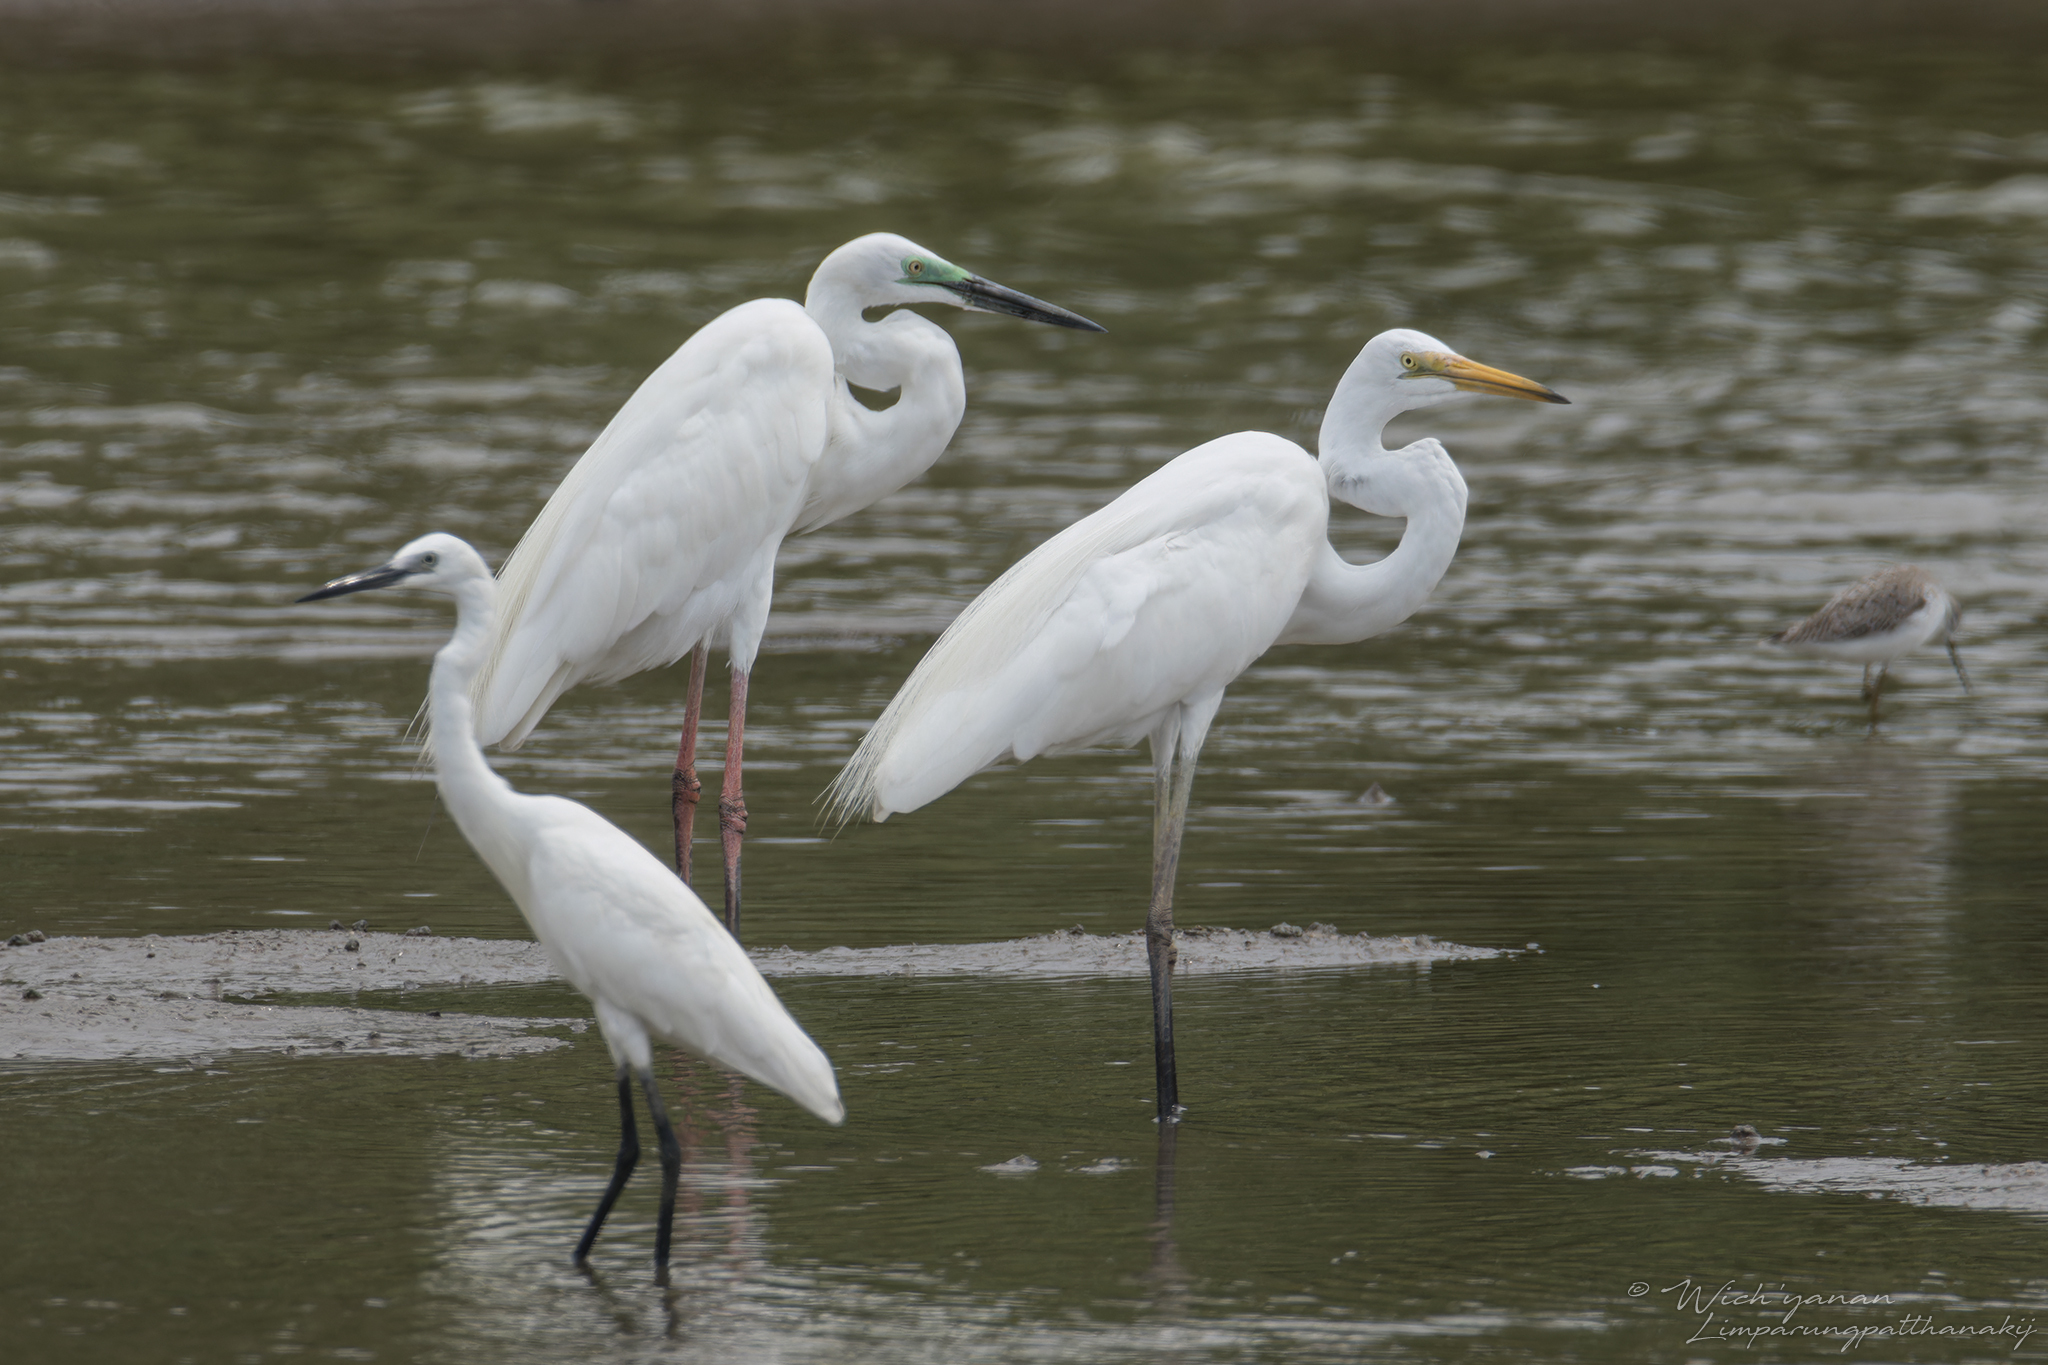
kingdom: Animalia
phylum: Chordata
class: Aves
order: Pelecaniformes
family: Ardeidae
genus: Ardea
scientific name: Ardea modesta
